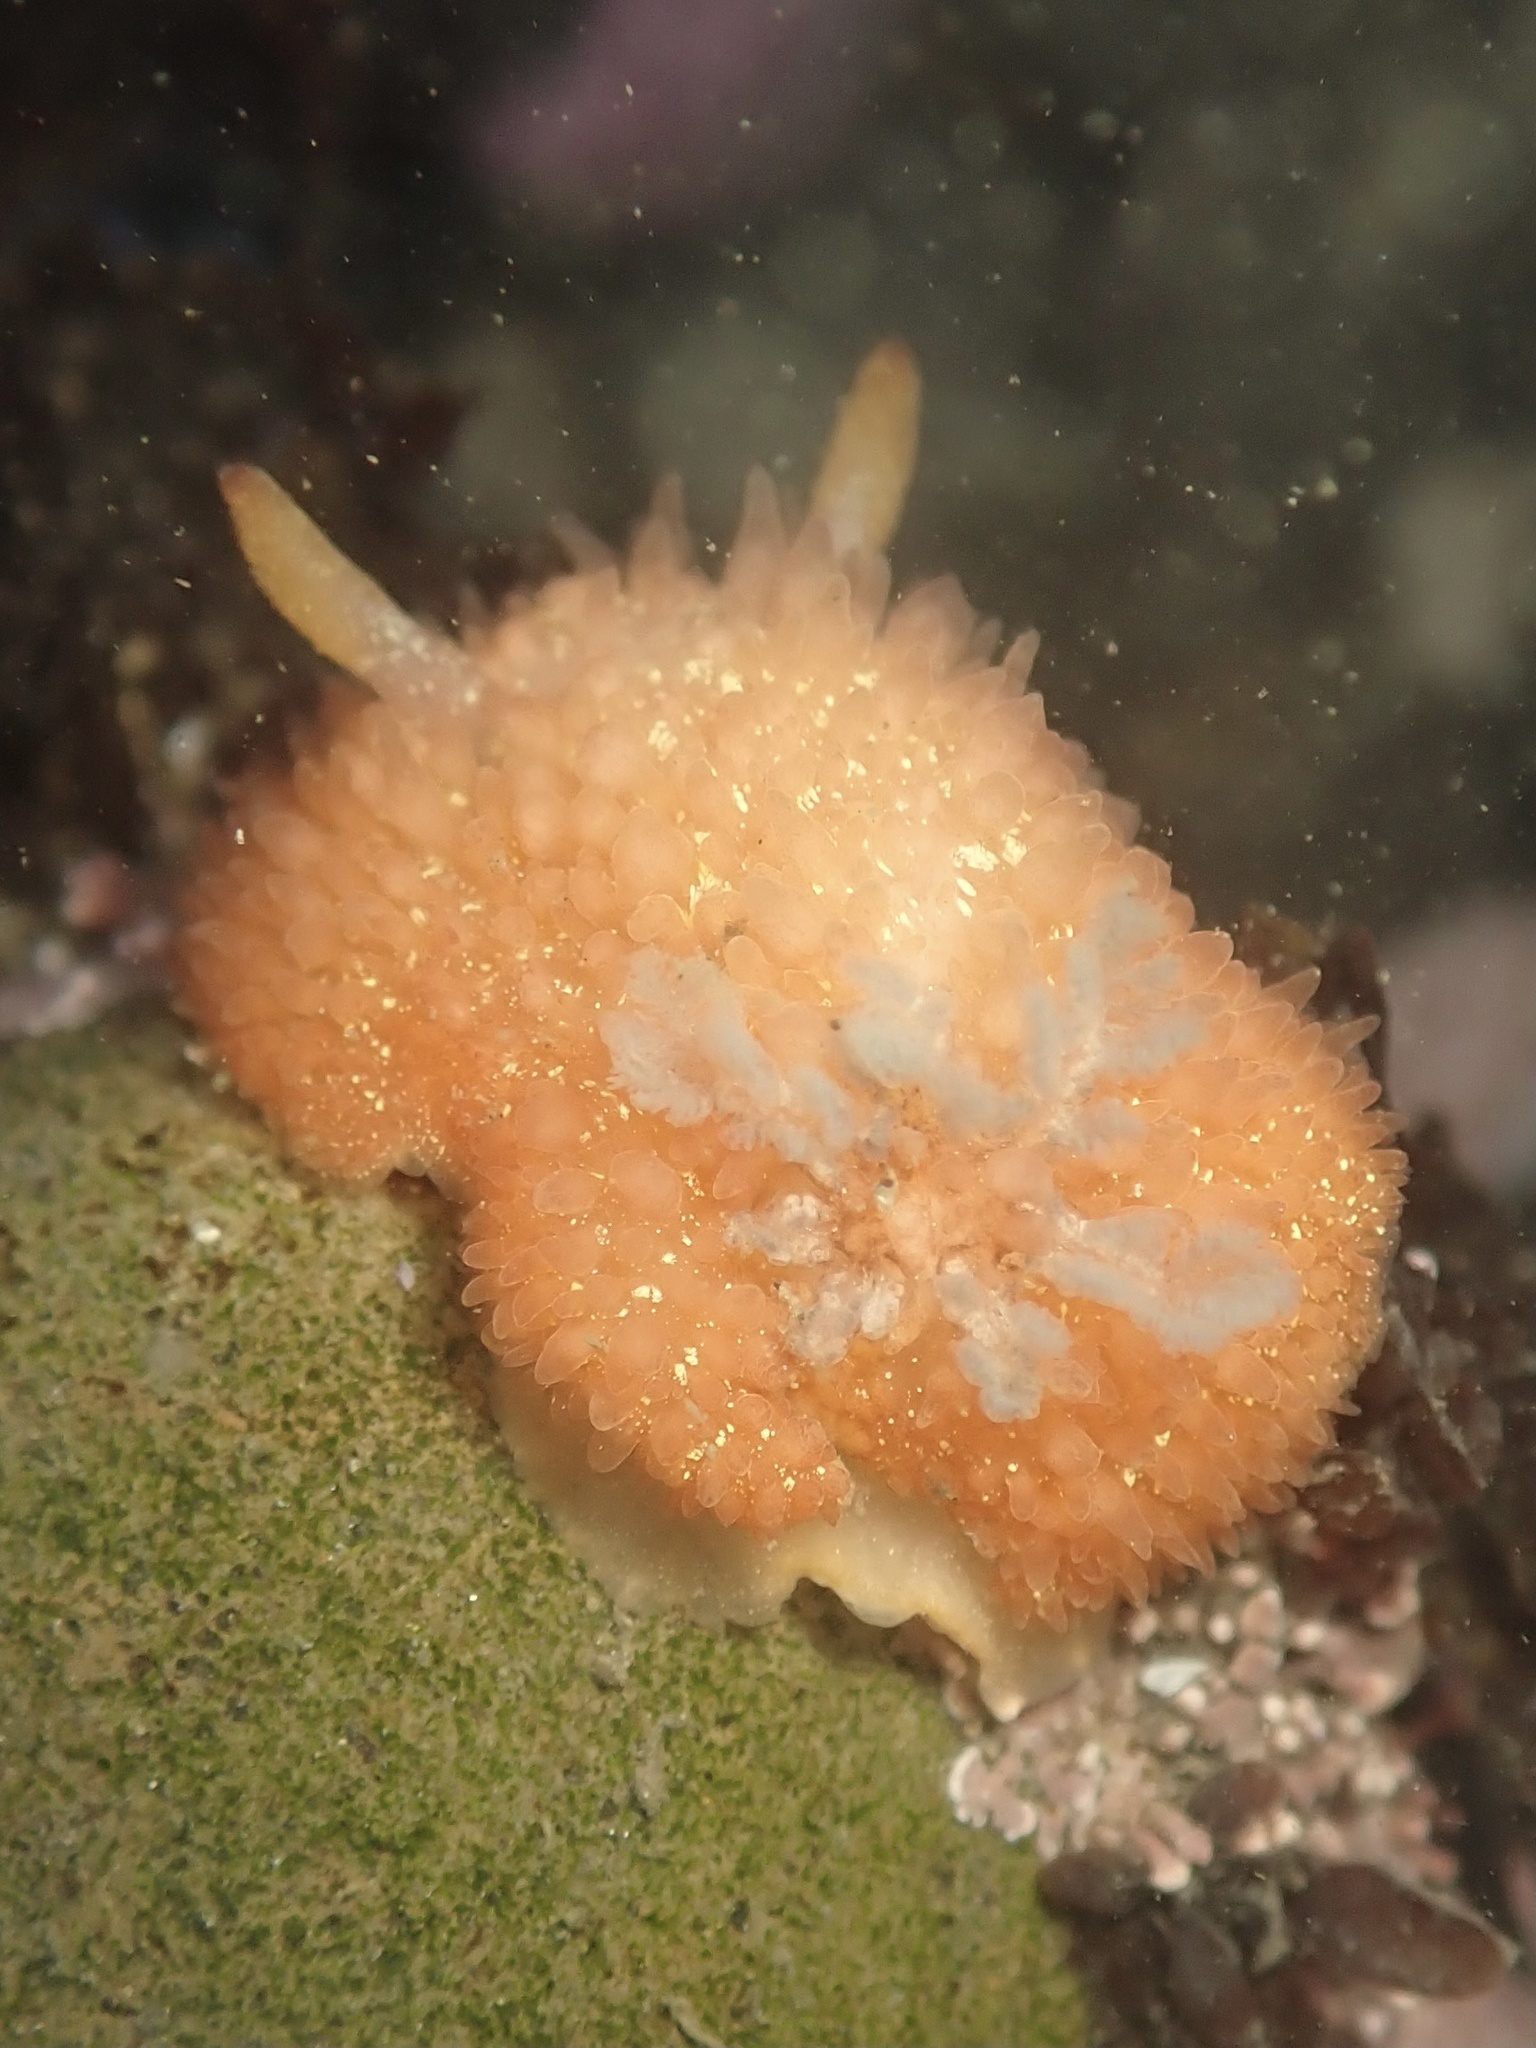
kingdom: Animalia
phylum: Mollusca
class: Gastropoda
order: Nudibranchia
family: Onchidorididae
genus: Acanthodoris
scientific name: Acanthodoris lutea
